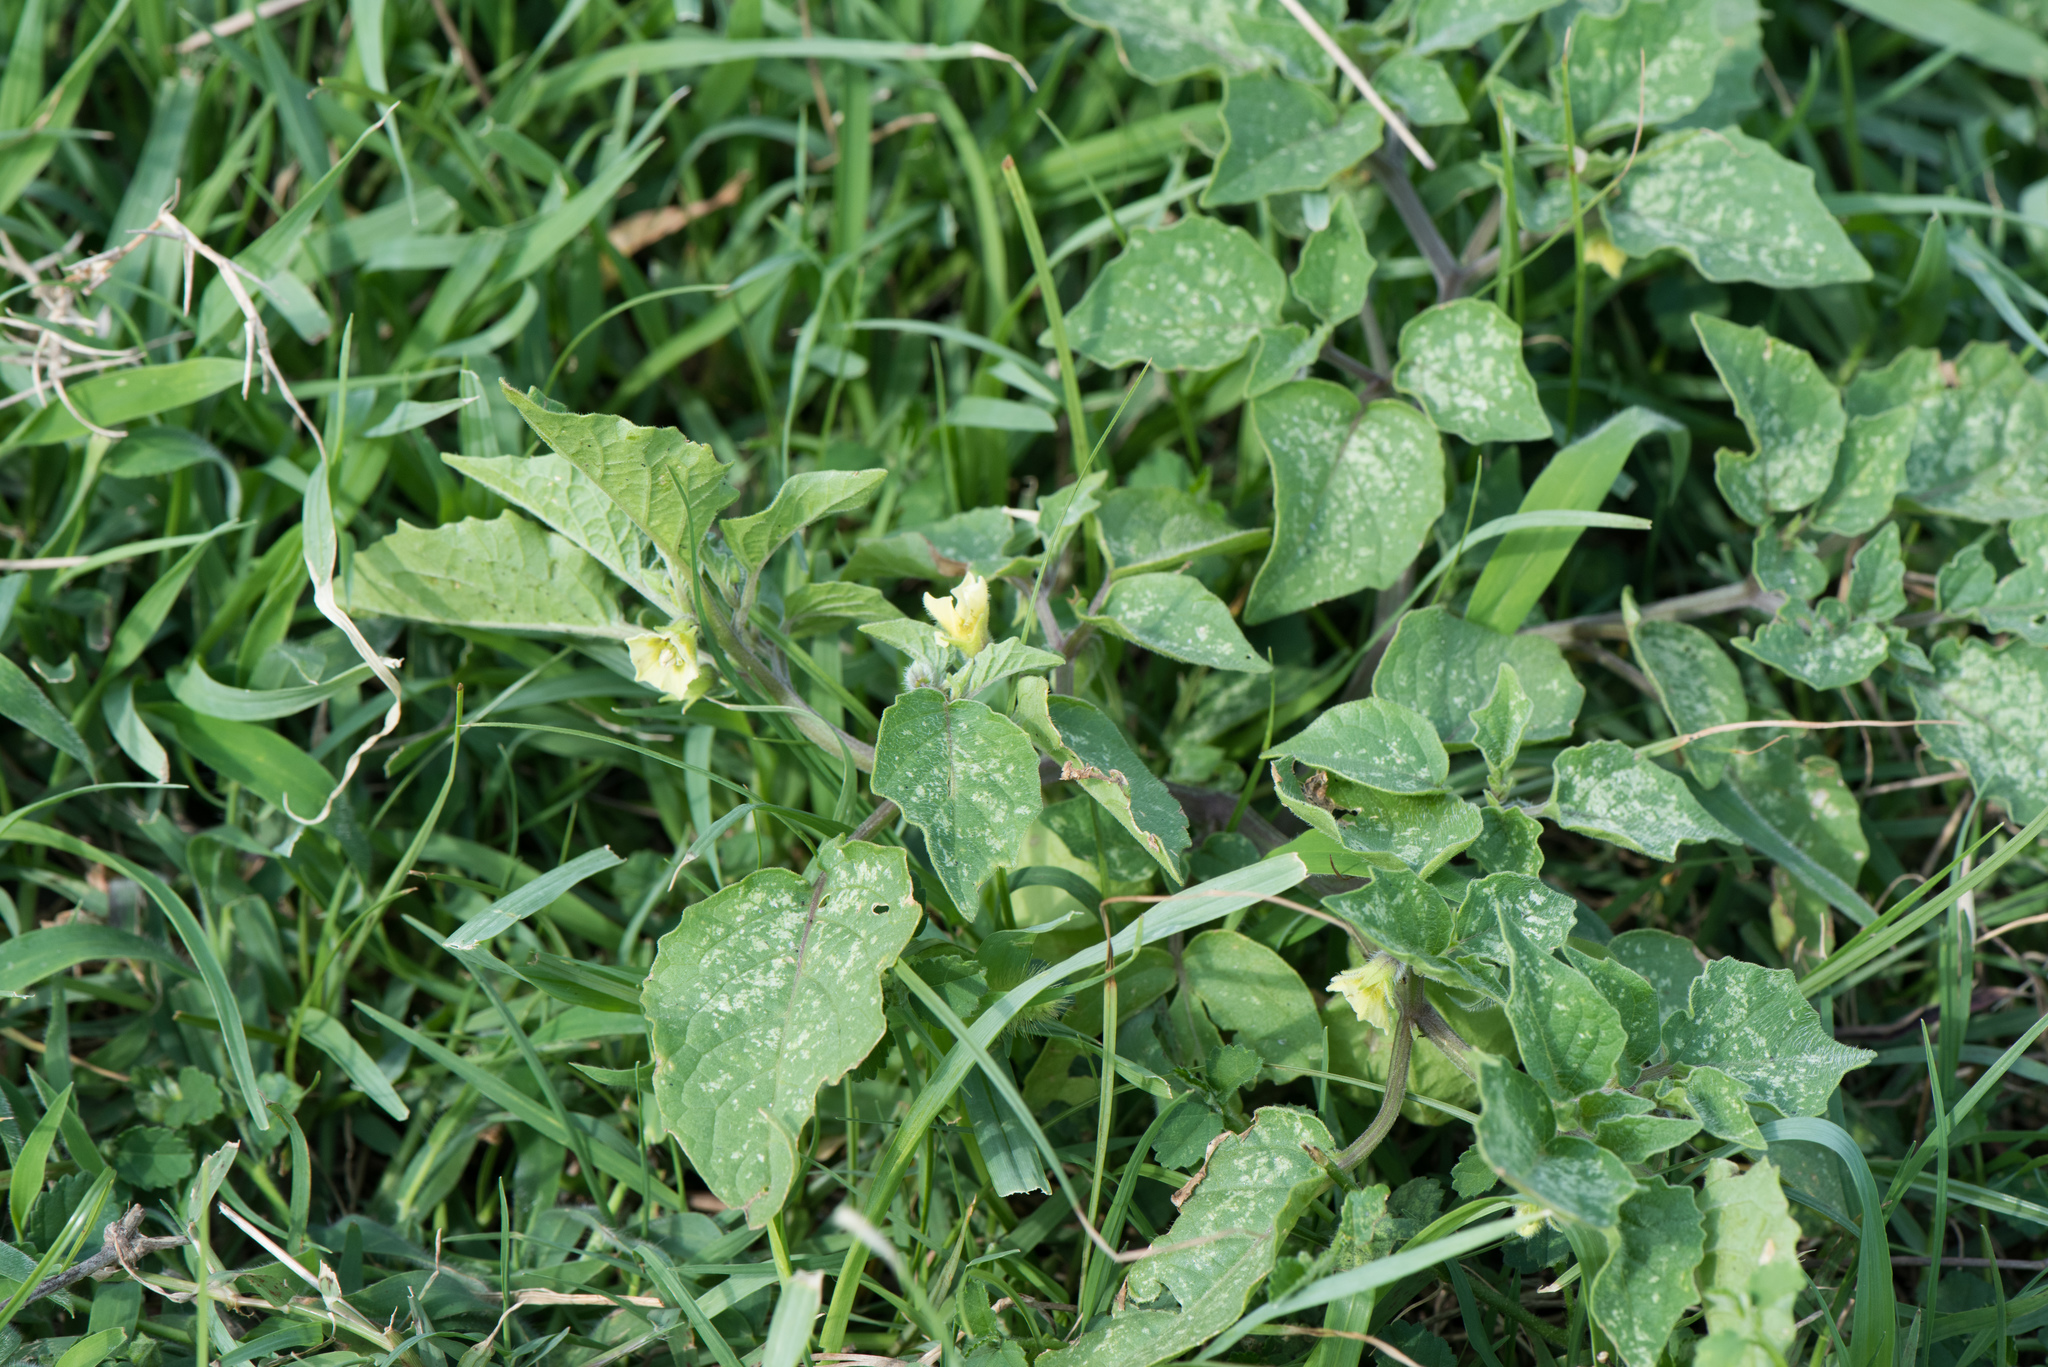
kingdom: Plantae
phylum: Tracheophyta
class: Magnoliopsida
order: Solanales
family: Solanaceae
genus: Physalis
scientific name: Physalis angulata
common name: Angular winter-cherry
